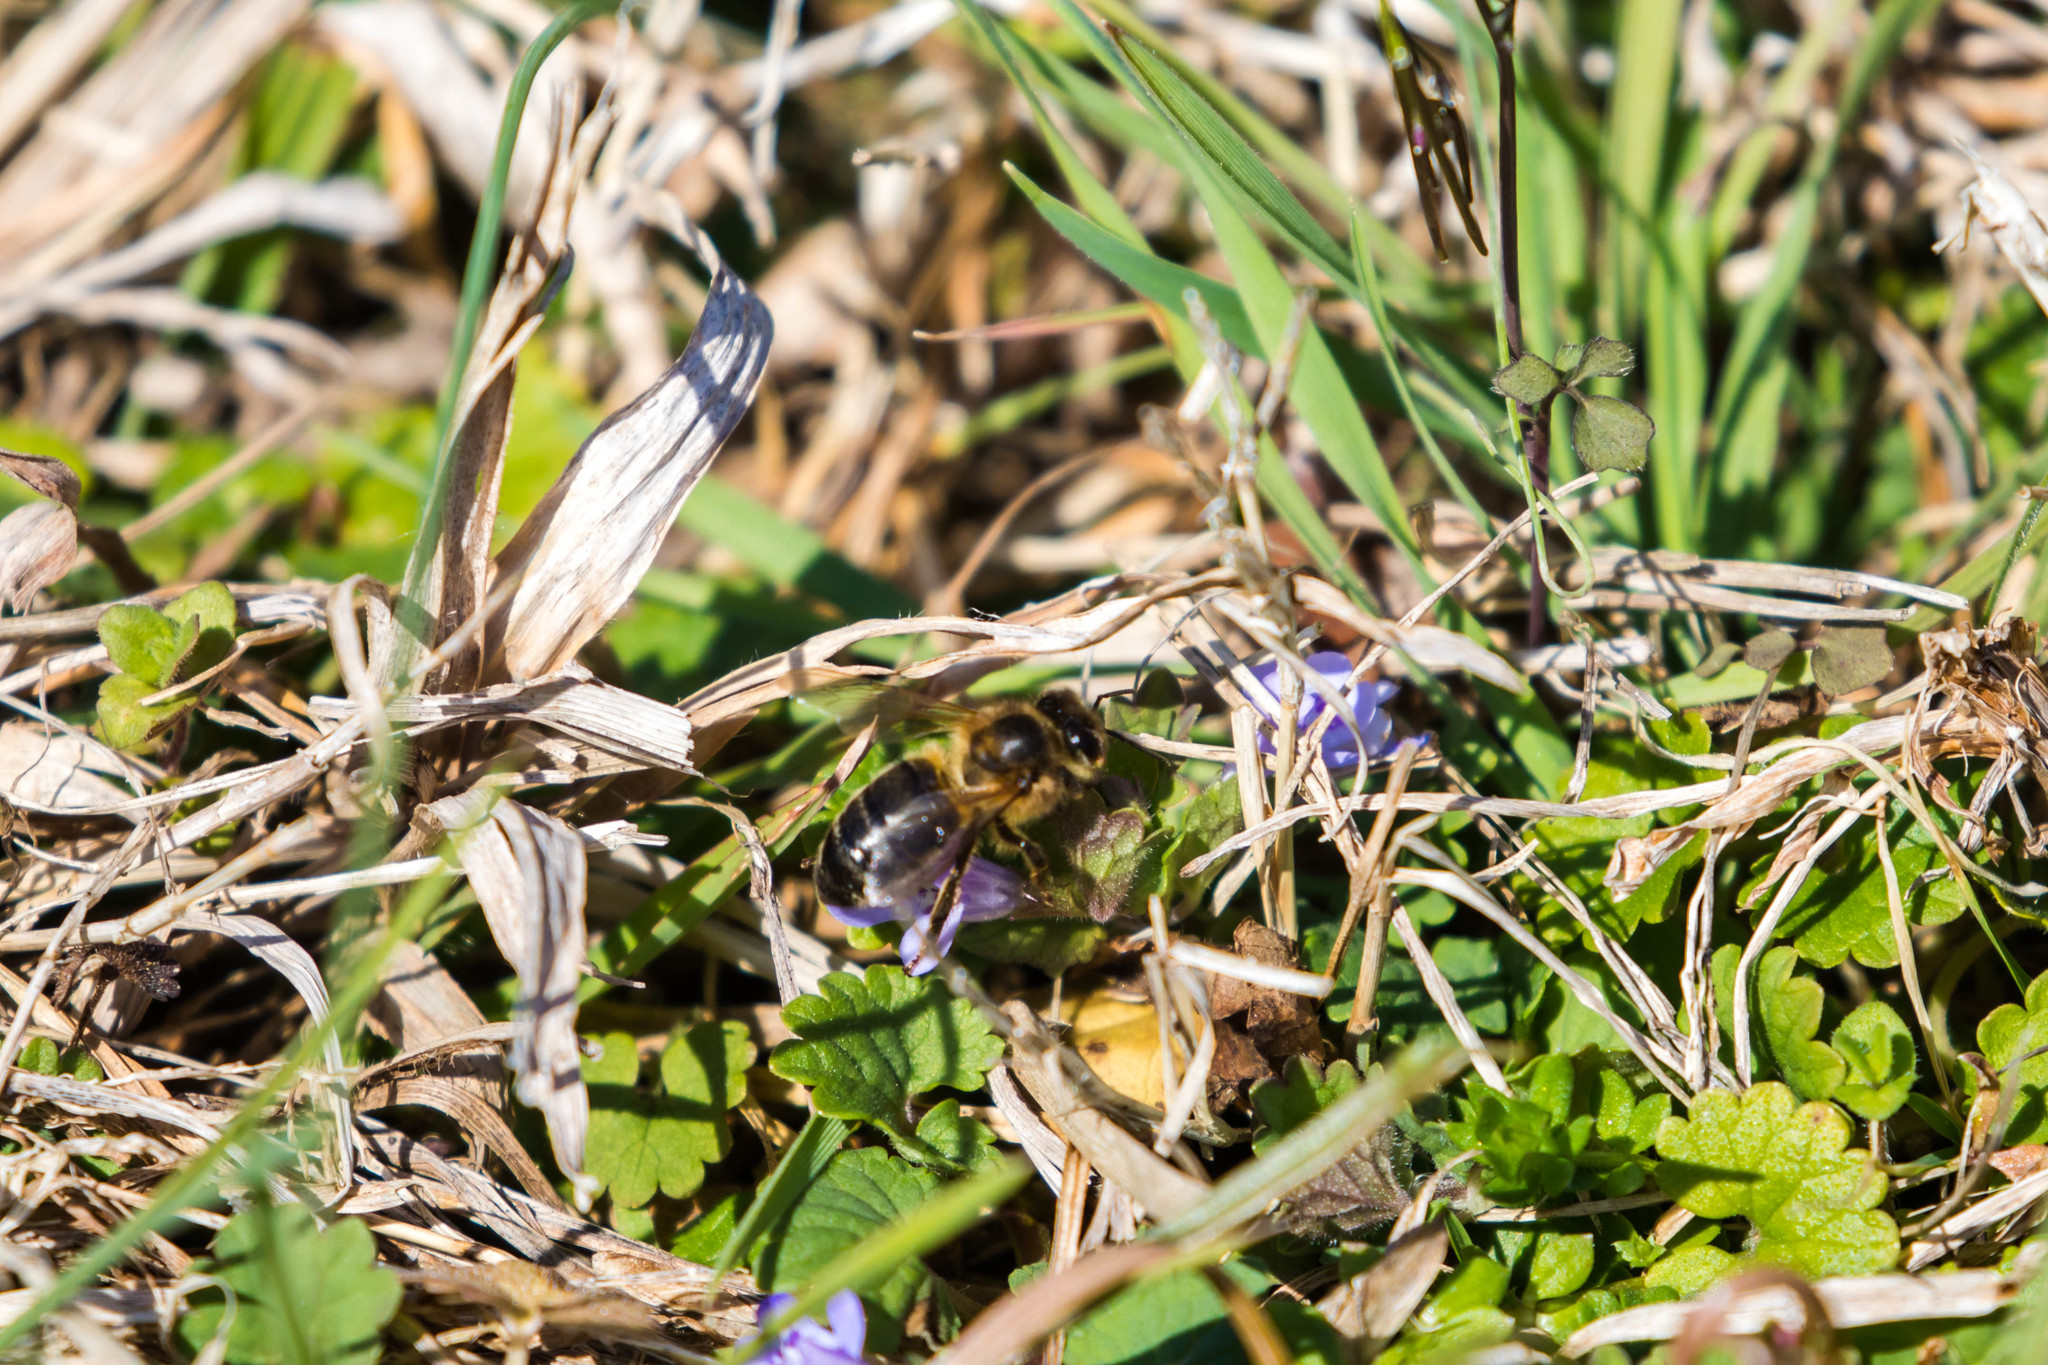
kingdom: Animalia
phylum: Arthropoda
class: Insecta
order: Hymenoptera
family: Apidae
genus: Apis
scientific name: Apis mellifera
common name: Honey bee
